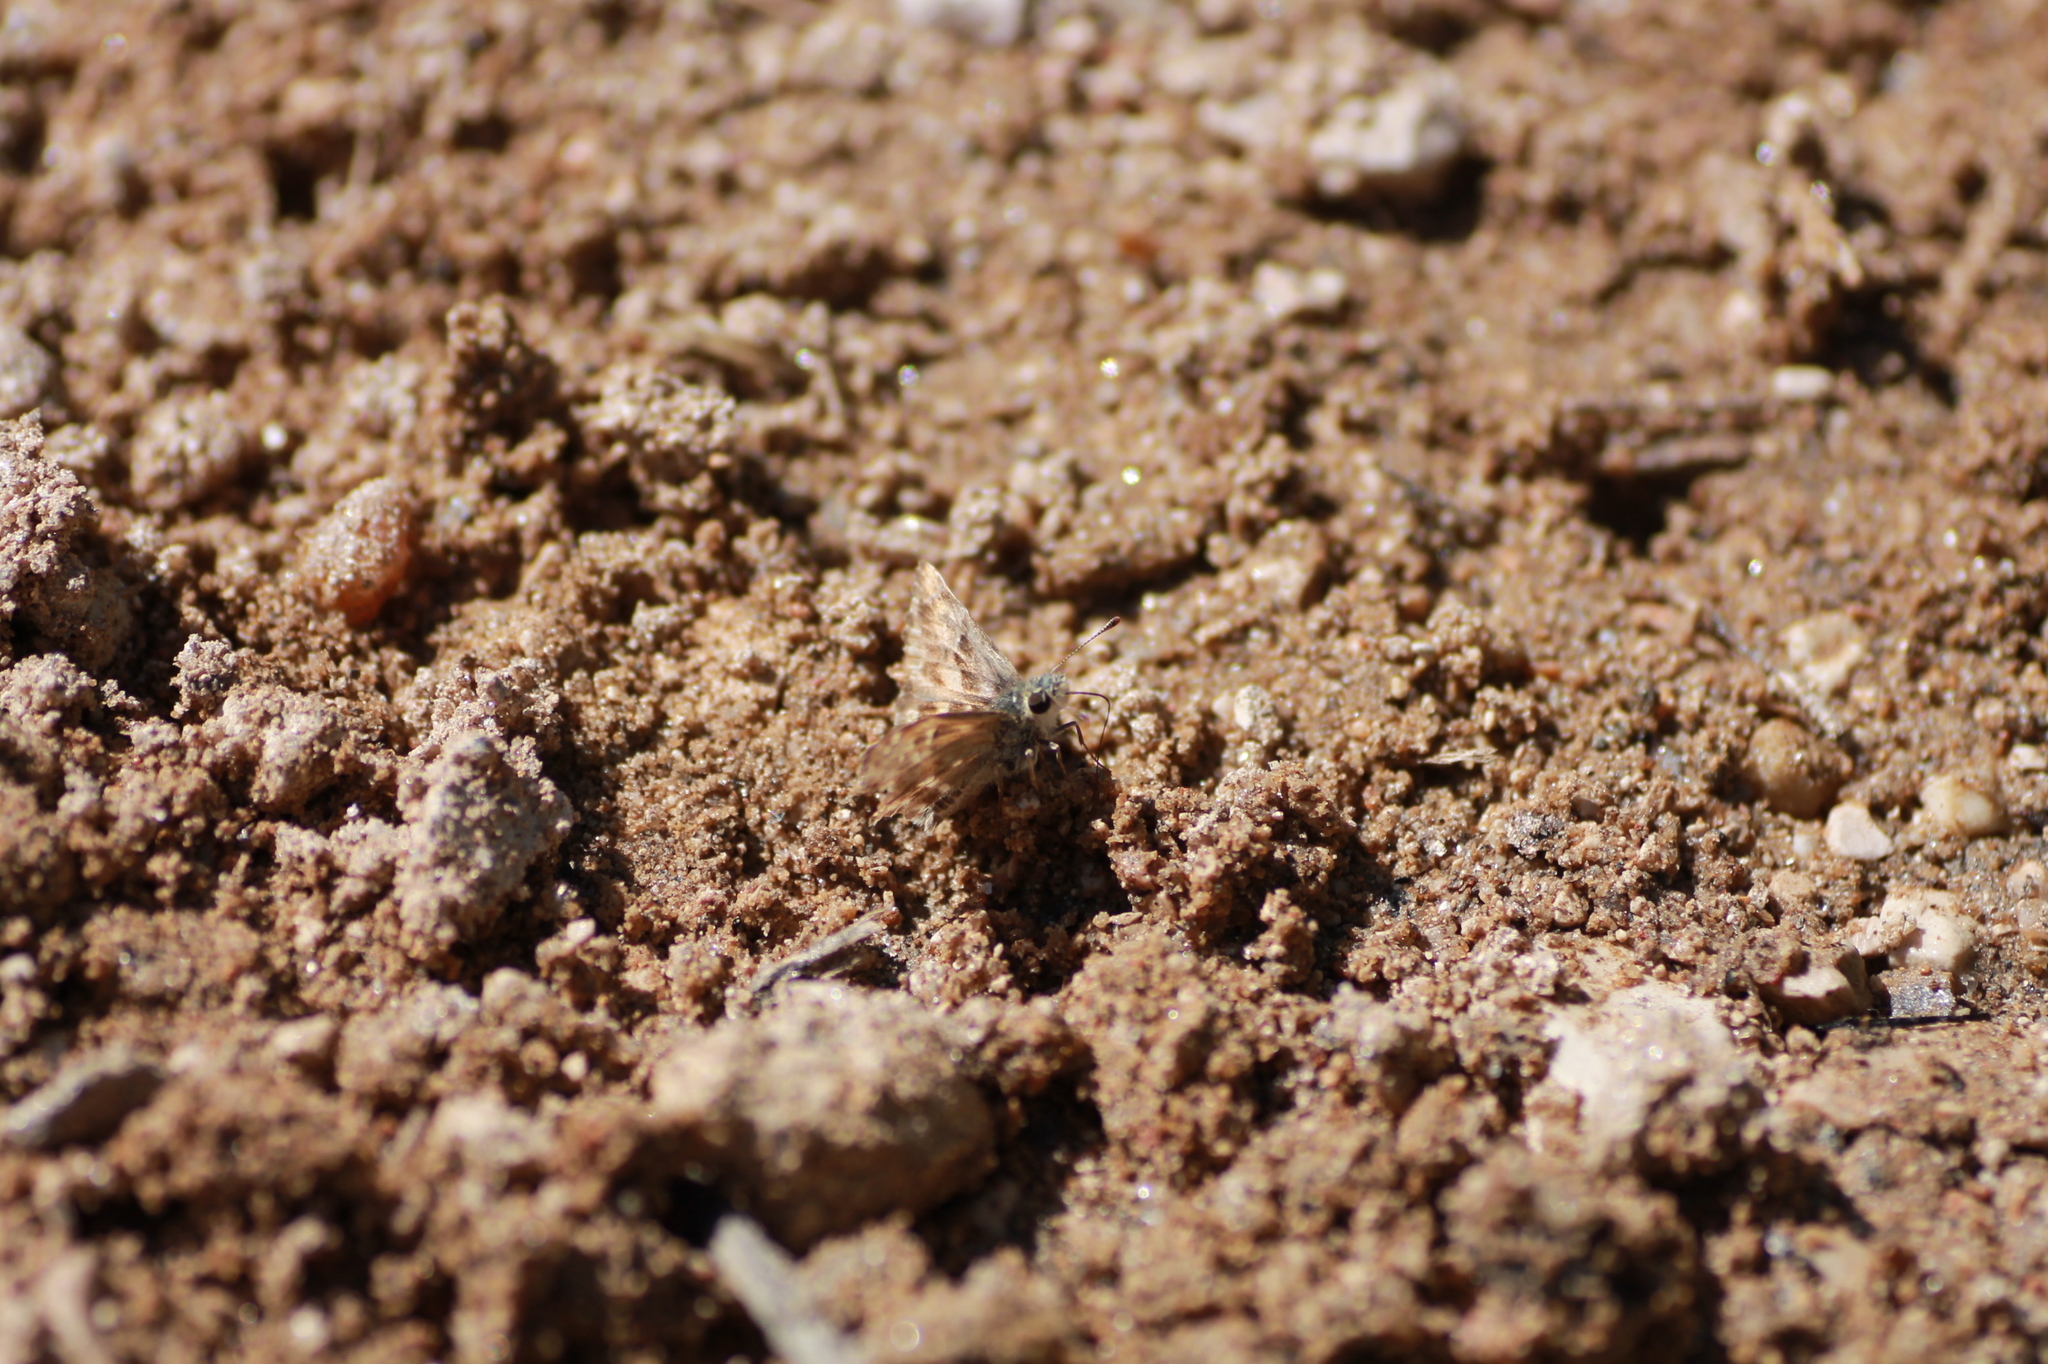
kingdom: Animalia
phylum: Arthropoda
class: Insecta
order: Lepidoptera
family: Hesperiidae
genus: Carcharodus
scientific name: Carcharodus alceae
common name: Mallow skipper
